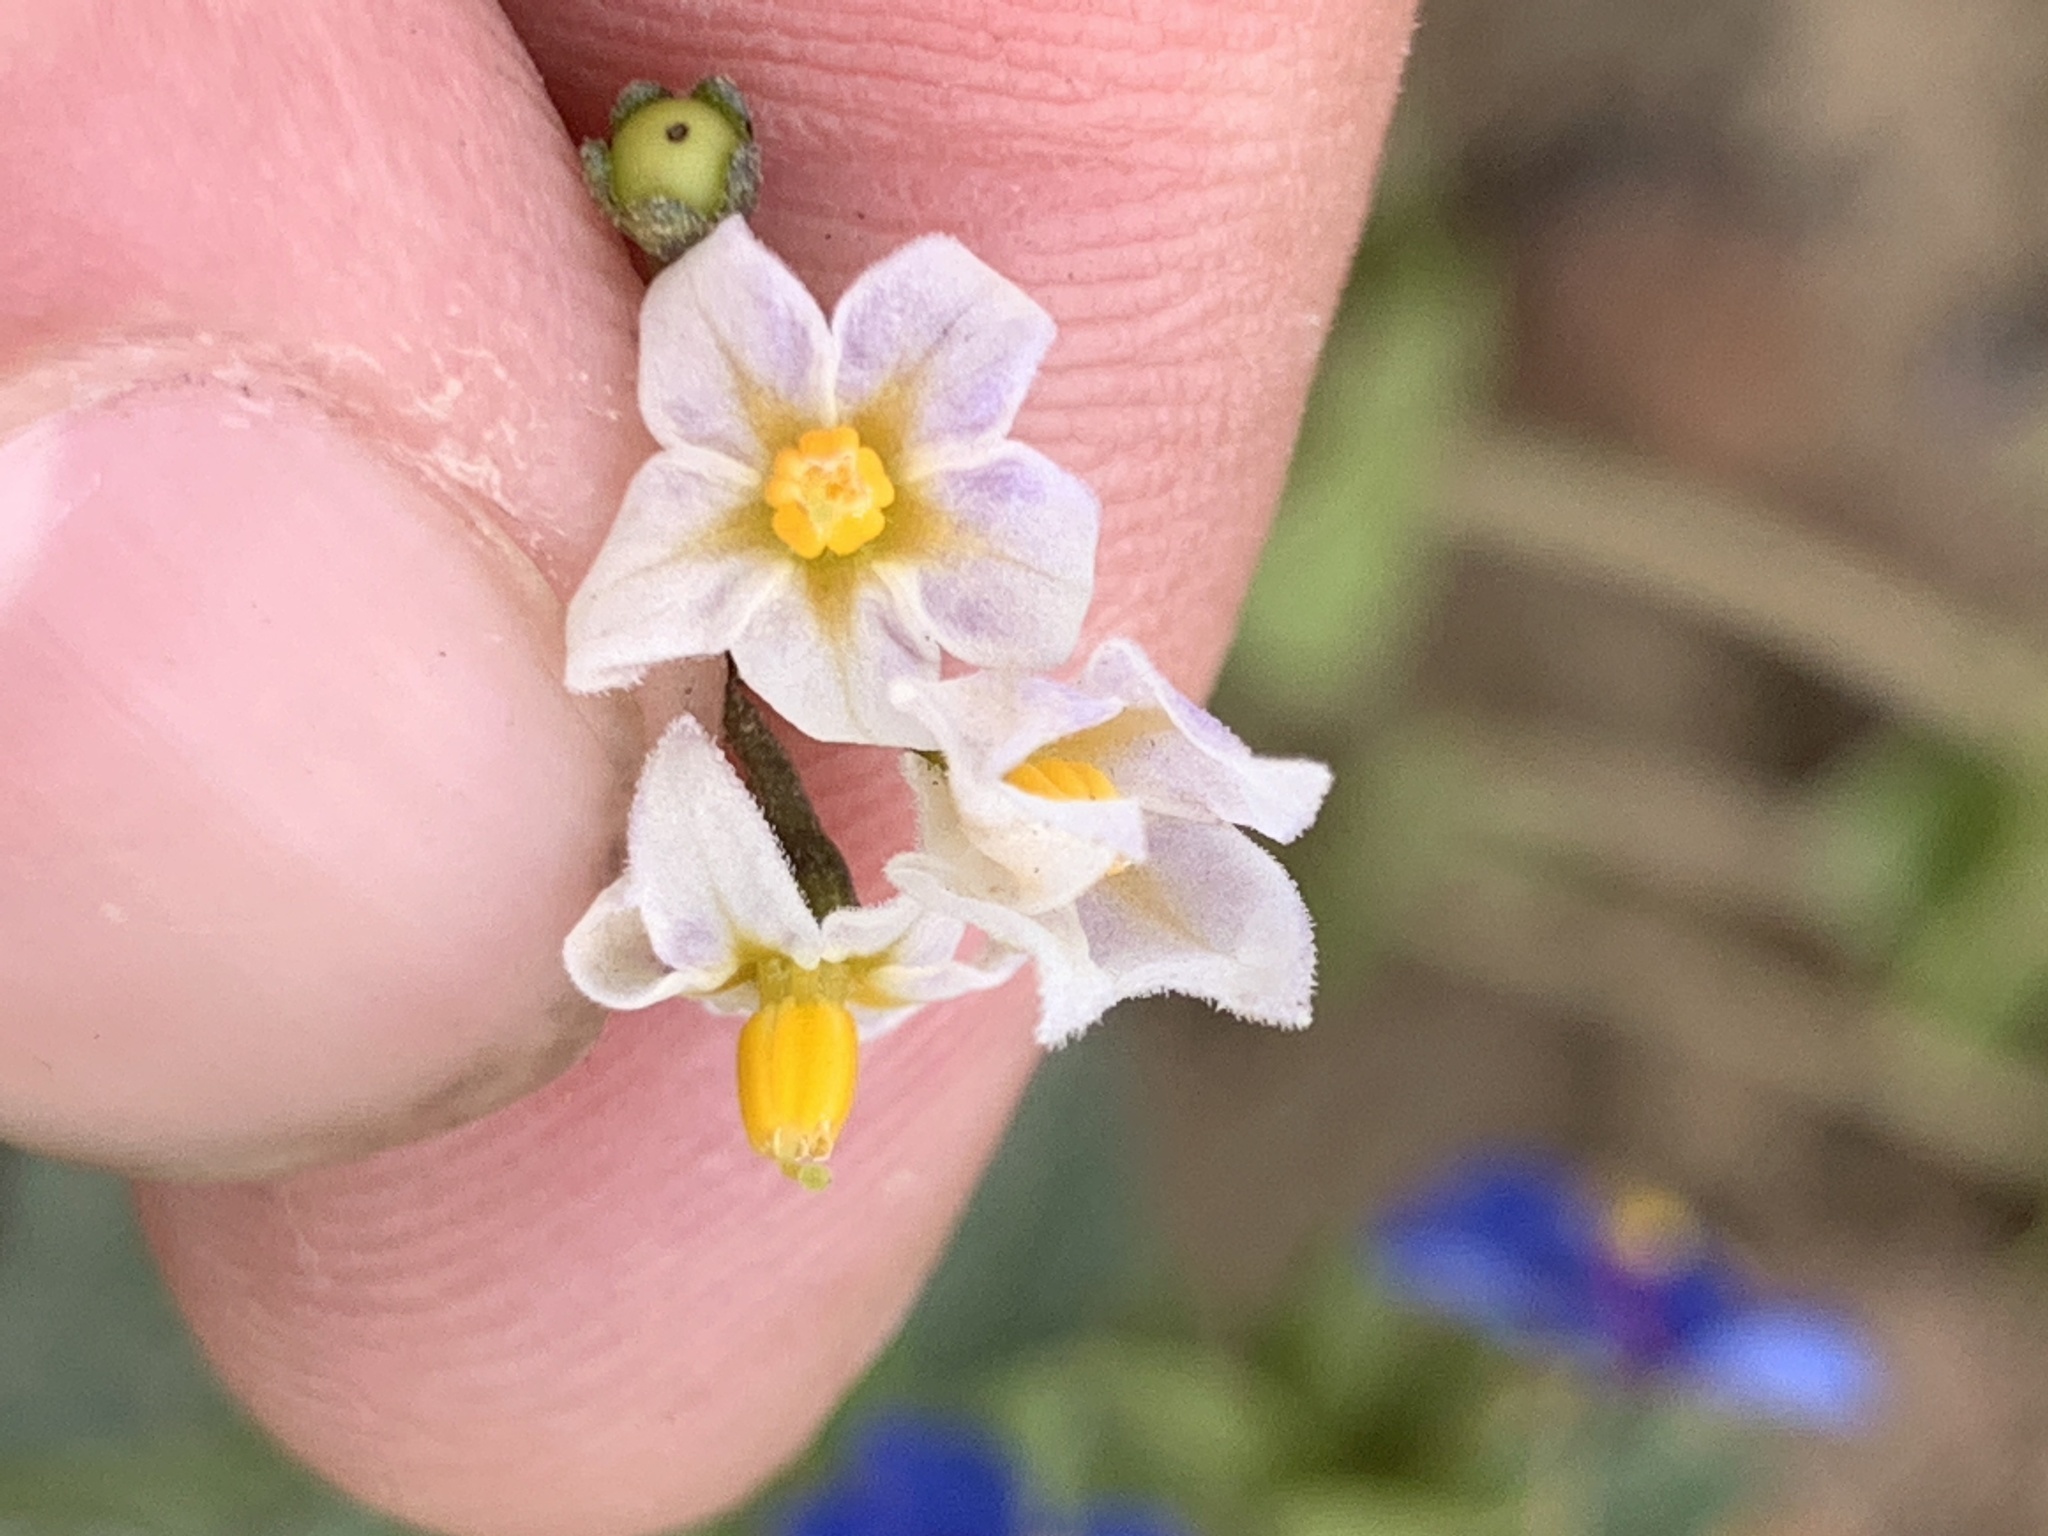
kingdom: Plantae
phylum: Tracheophyta
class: Magnoliopsida
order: Solanales
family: Solanaceae
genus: Solanum
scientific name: Solanum nigrum
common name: Black nightshade
